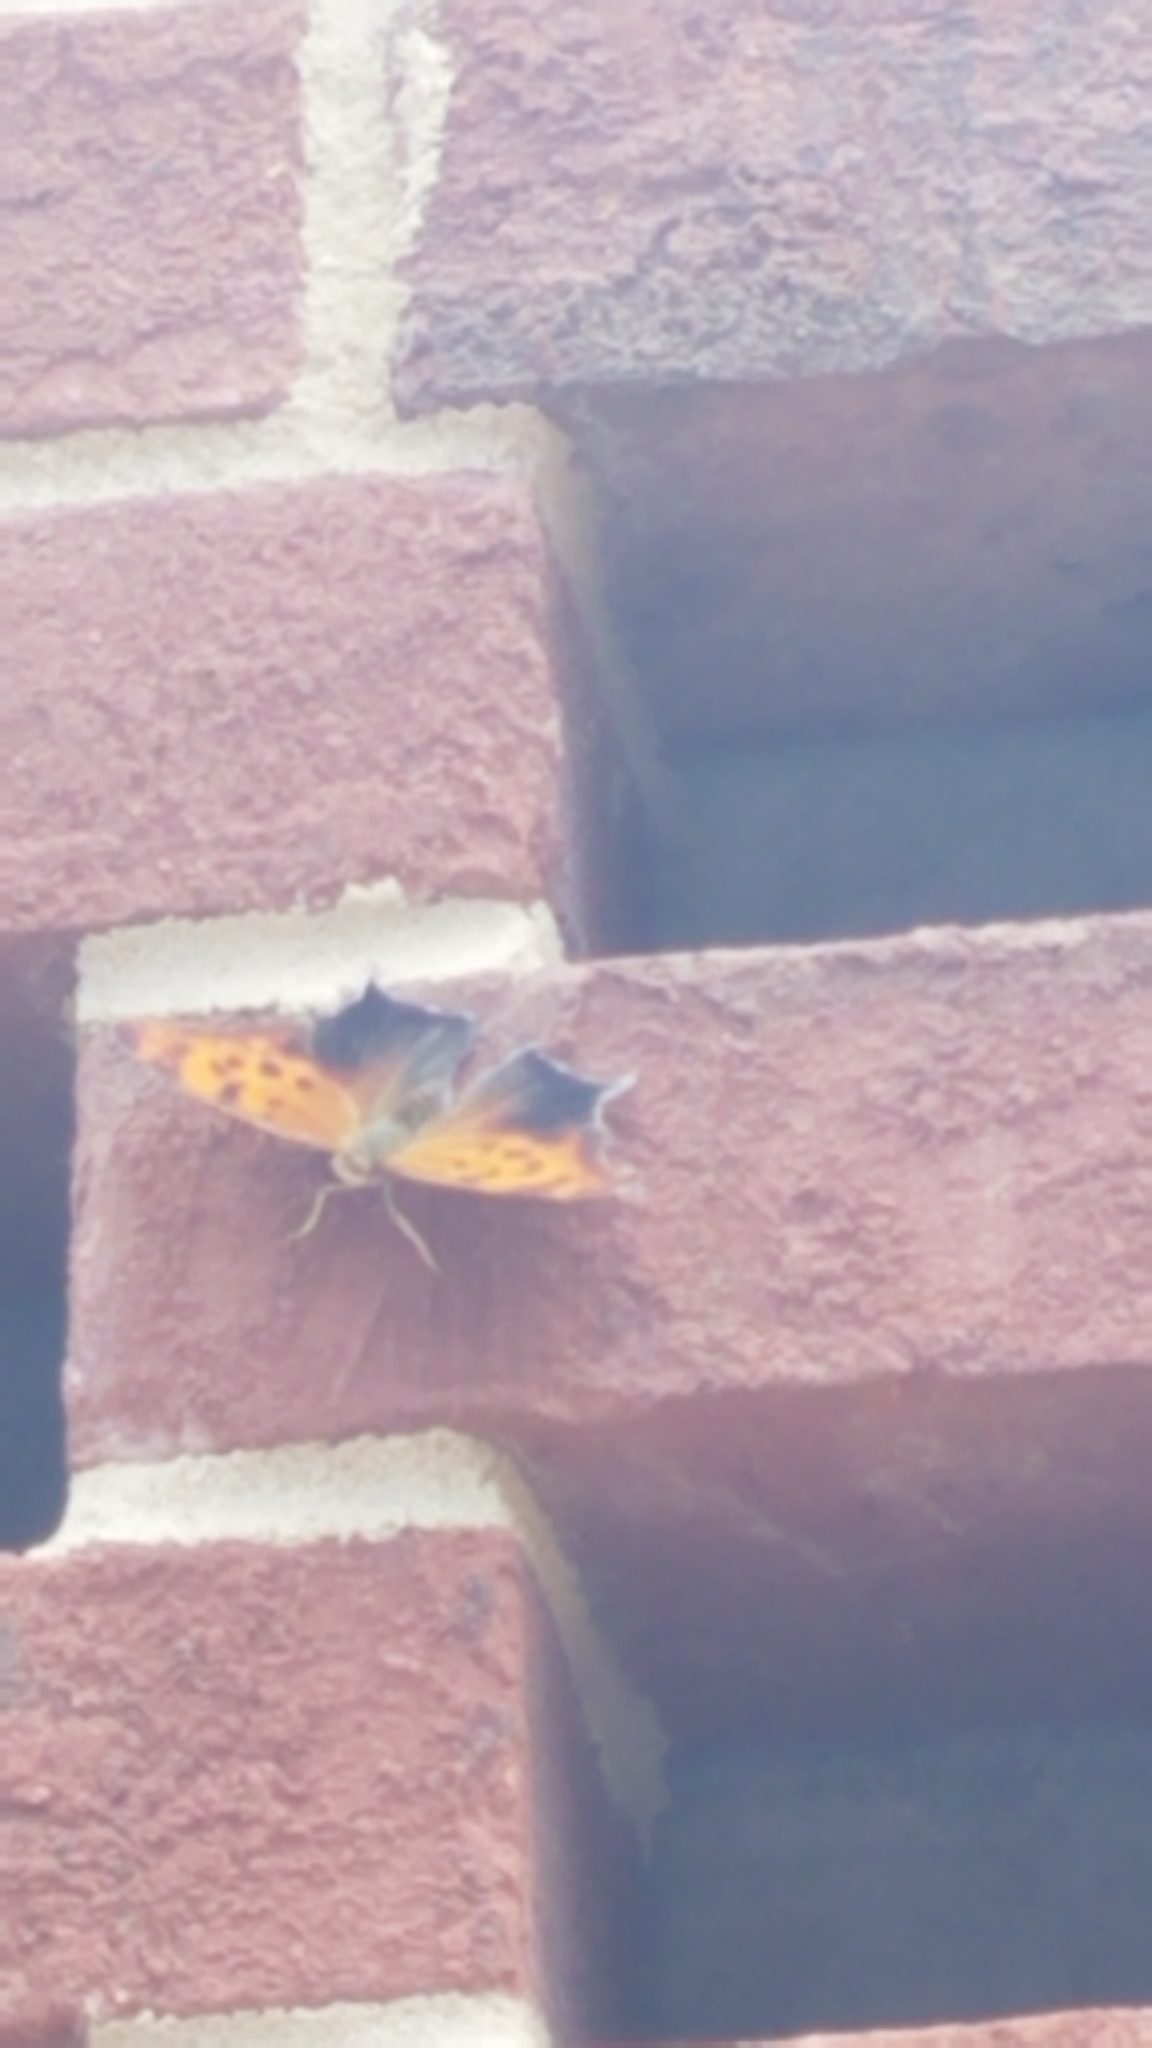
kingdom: Animalia
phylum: Arthropoda
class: Insecta
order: Lepidoptera
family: Nymphalidae
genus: Polygonia
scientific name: Polygonia interrogationis
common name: Question mark
